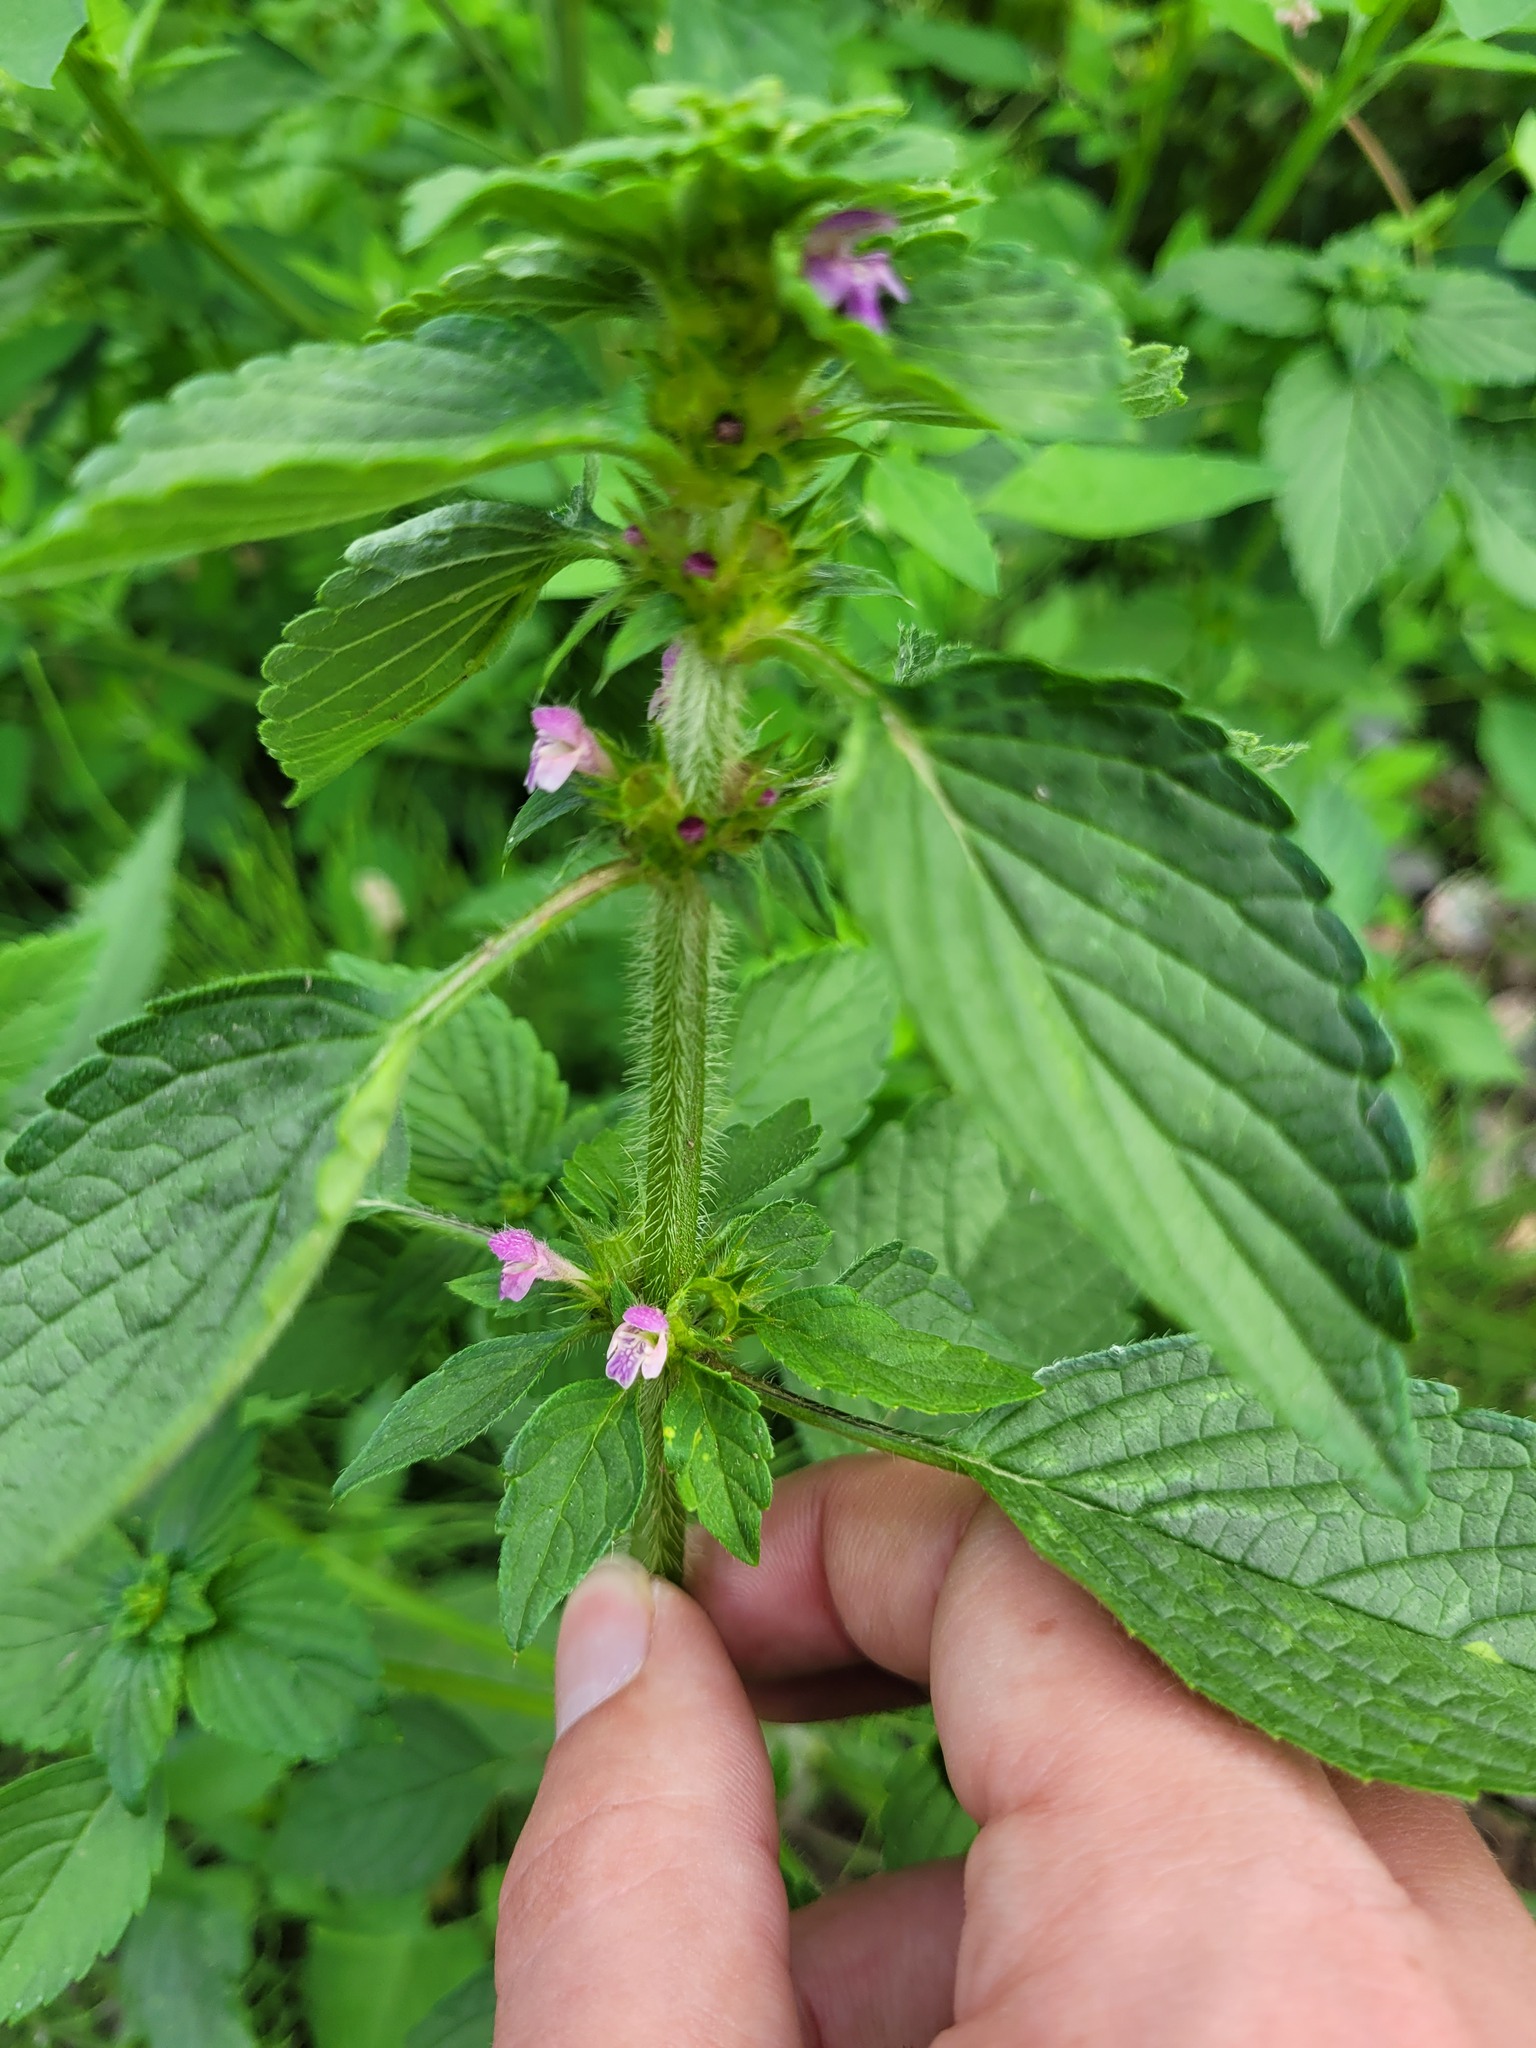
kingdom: Plantae
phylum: Tracheophyta
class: Magnoliopsida
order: Lamiales
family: Lamiaceae
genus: Galeopsis
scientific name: Galeopsis bifida
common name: Bifid hemp-nettle
